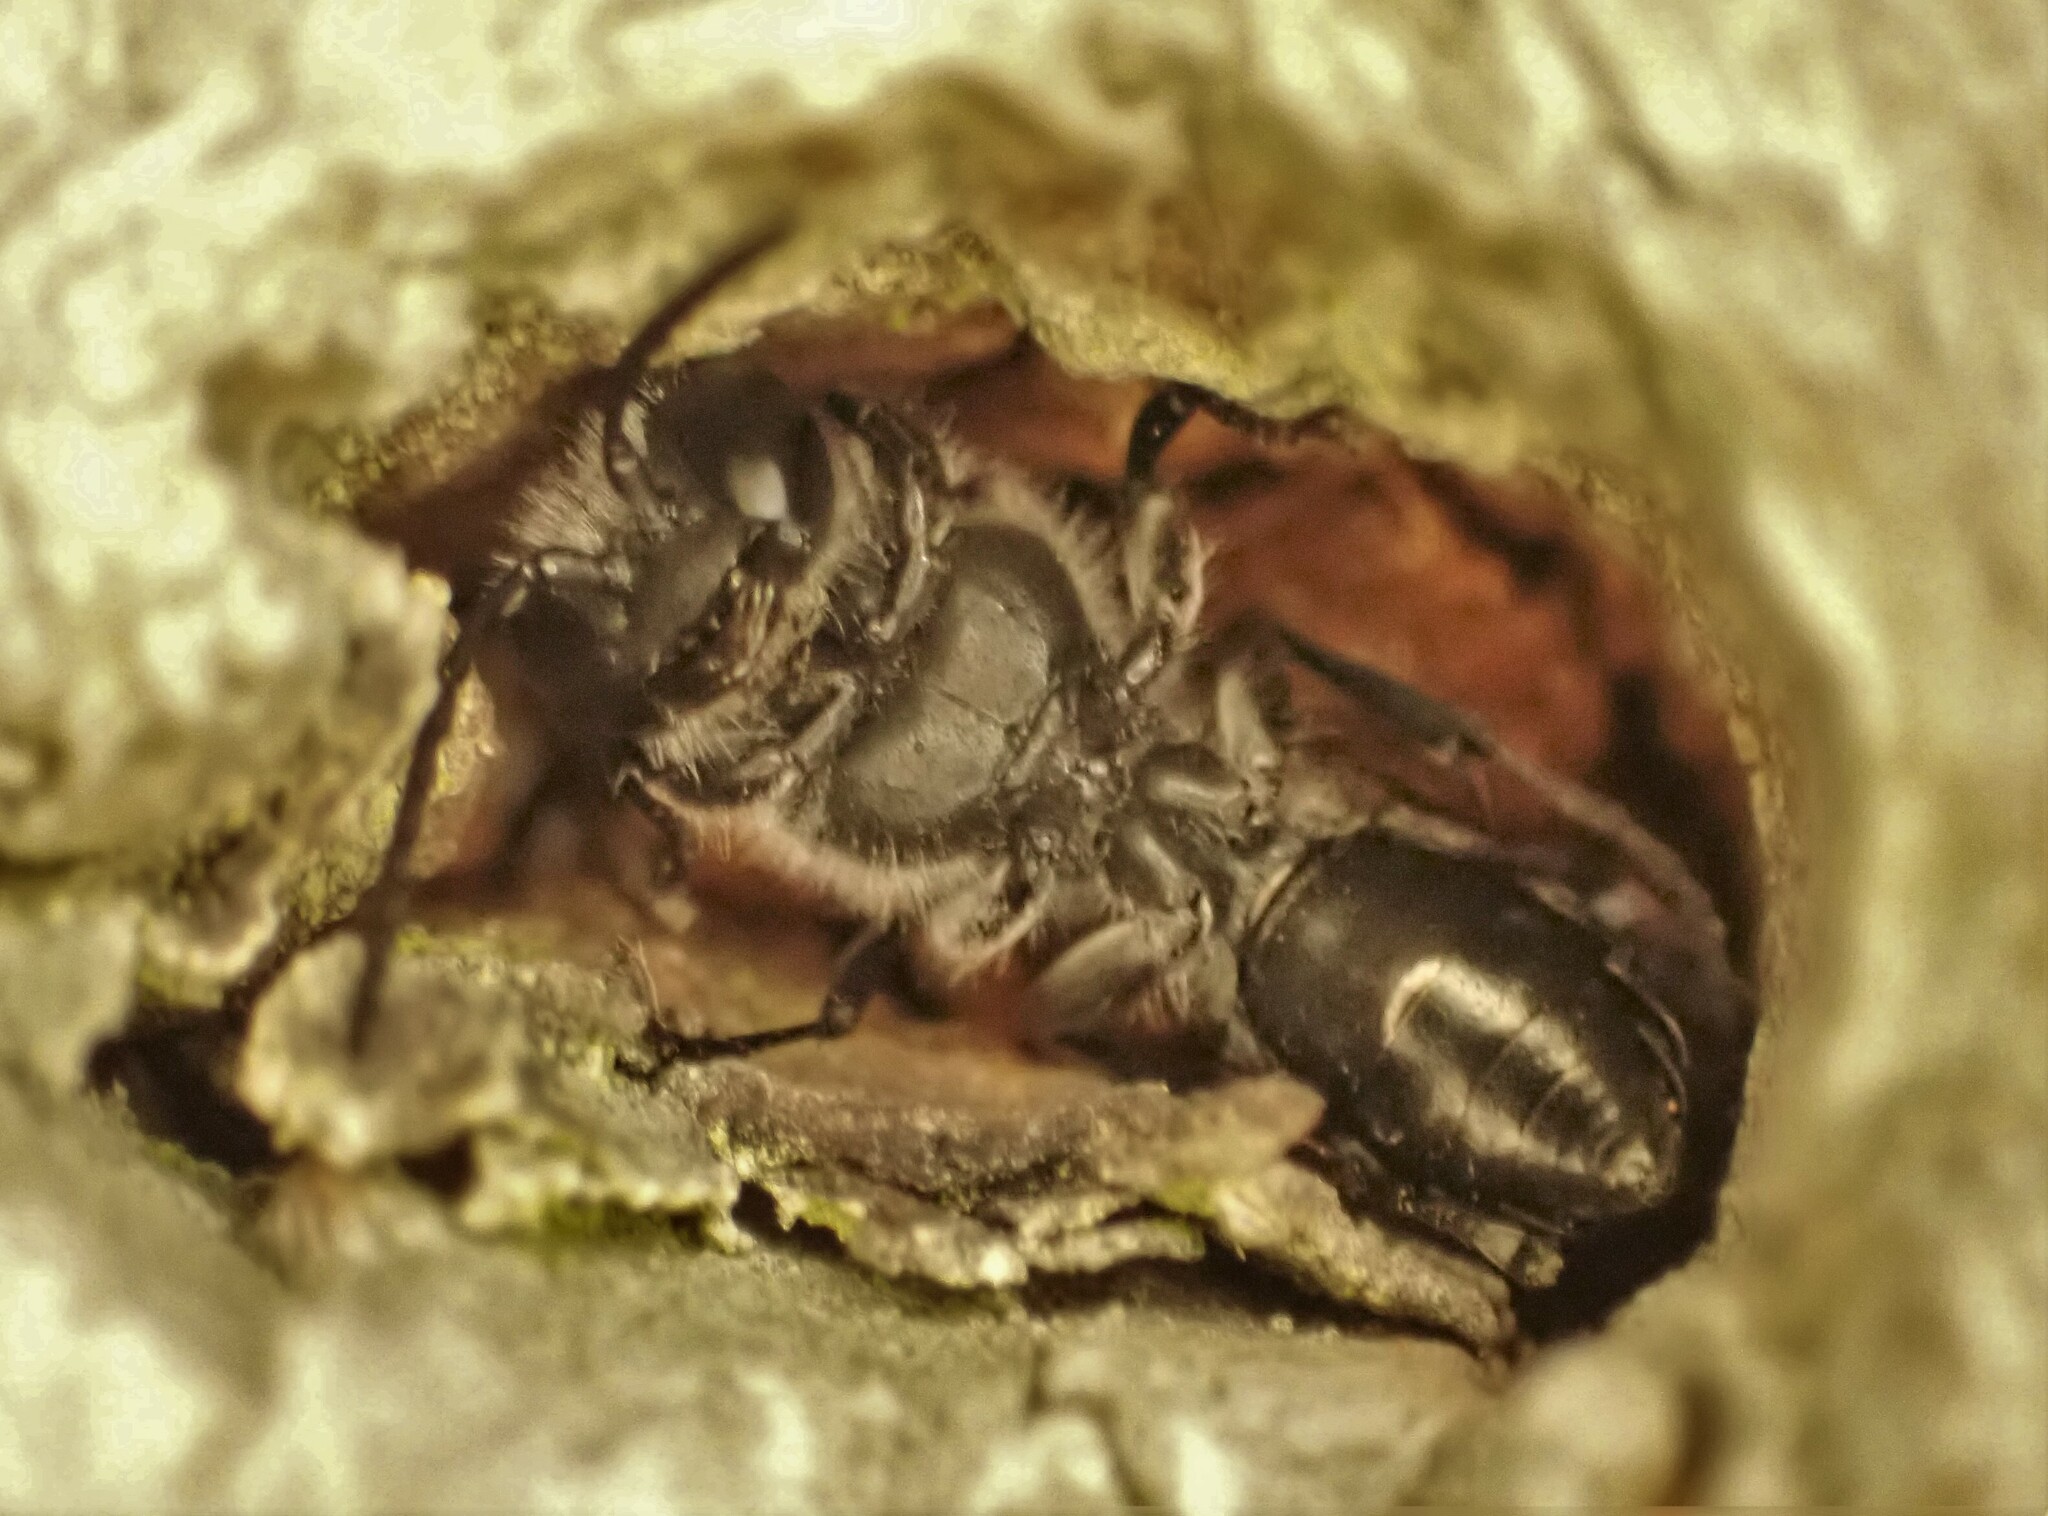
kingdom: Animalia
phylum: Arthropoda
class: Insecta
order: Hymenoptera
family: Crabronidae
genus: Pison
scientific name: Pison spinolae
